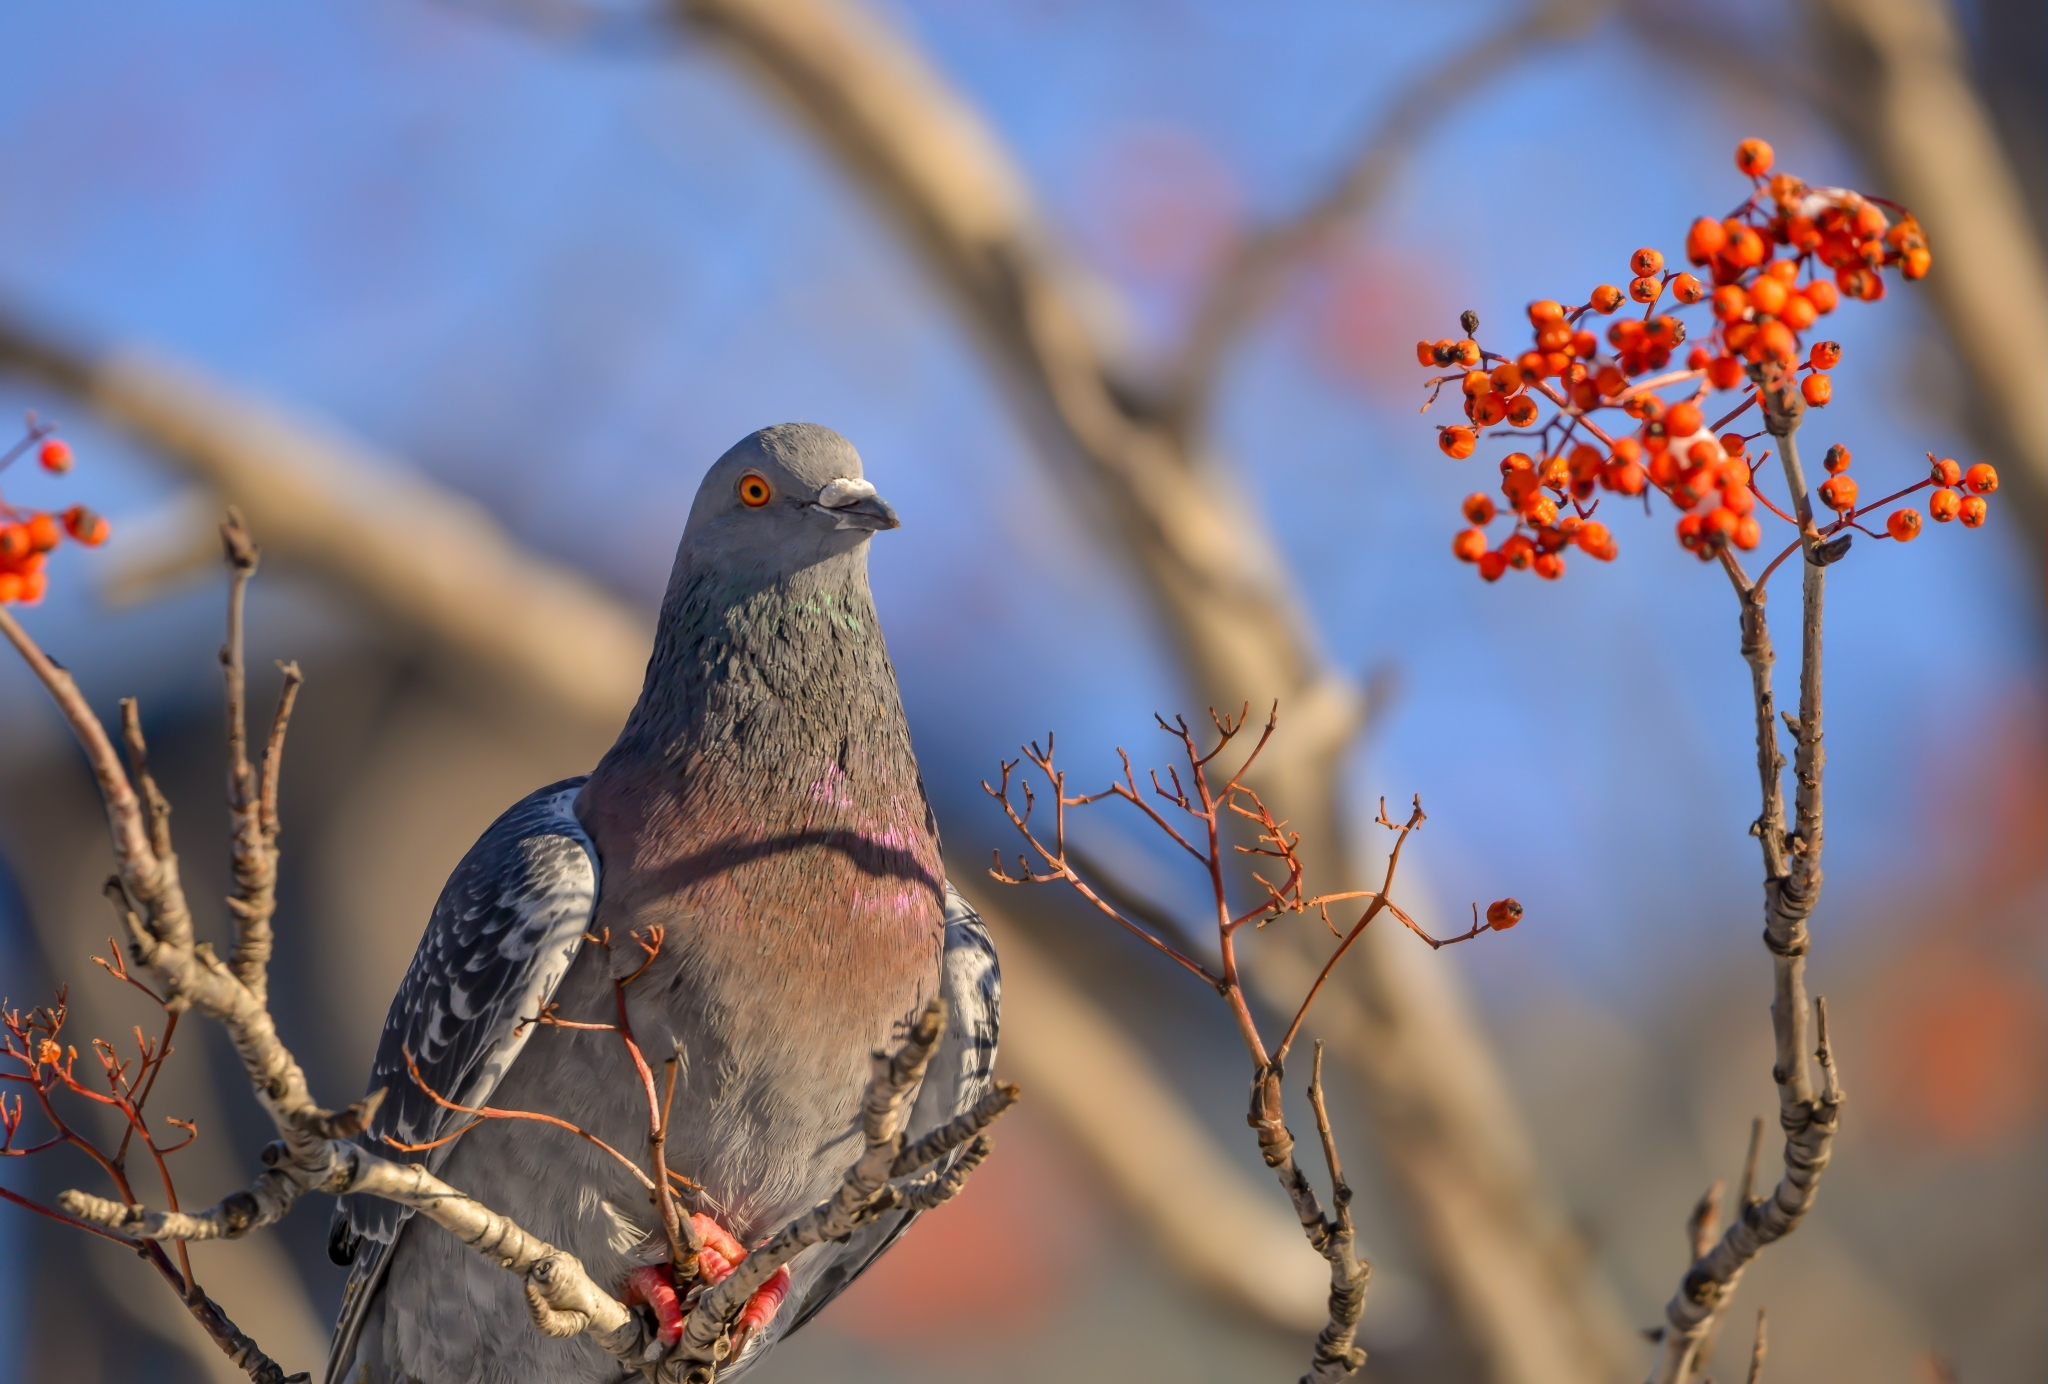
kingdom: Animalia
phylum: Chordata
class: Aves
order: Columbiformes
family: Columbidae
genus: Columba
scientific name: Columba livia
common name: Rock pigeon
